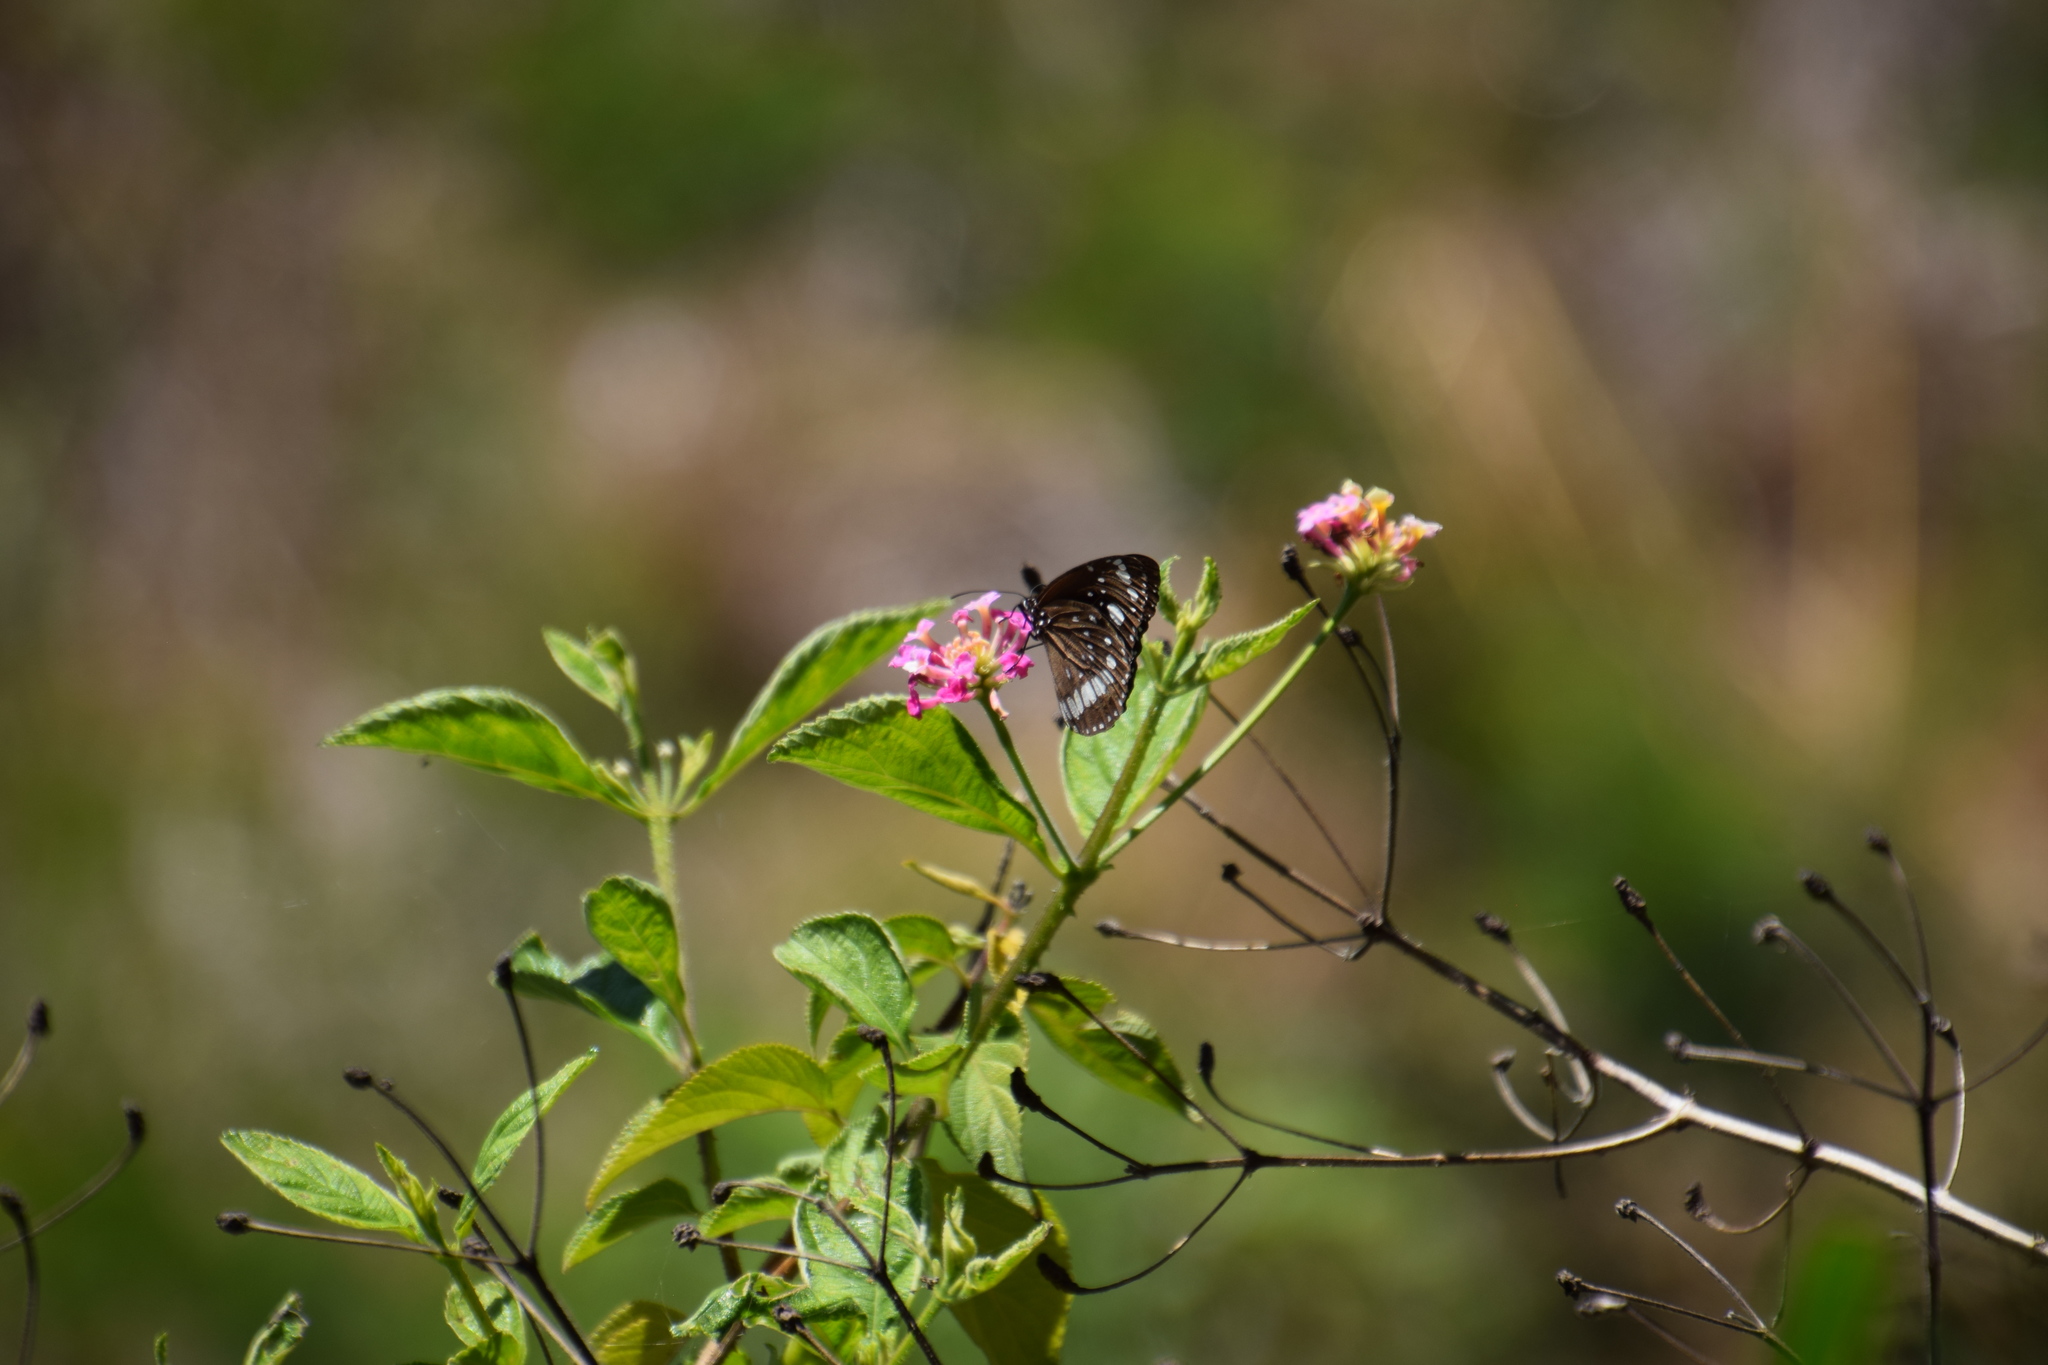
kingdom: Animalia
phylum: Arthropoda
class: Insecta
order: Lepidoptera
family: Nymphalidae
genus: Euploea
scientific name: Euploea core
